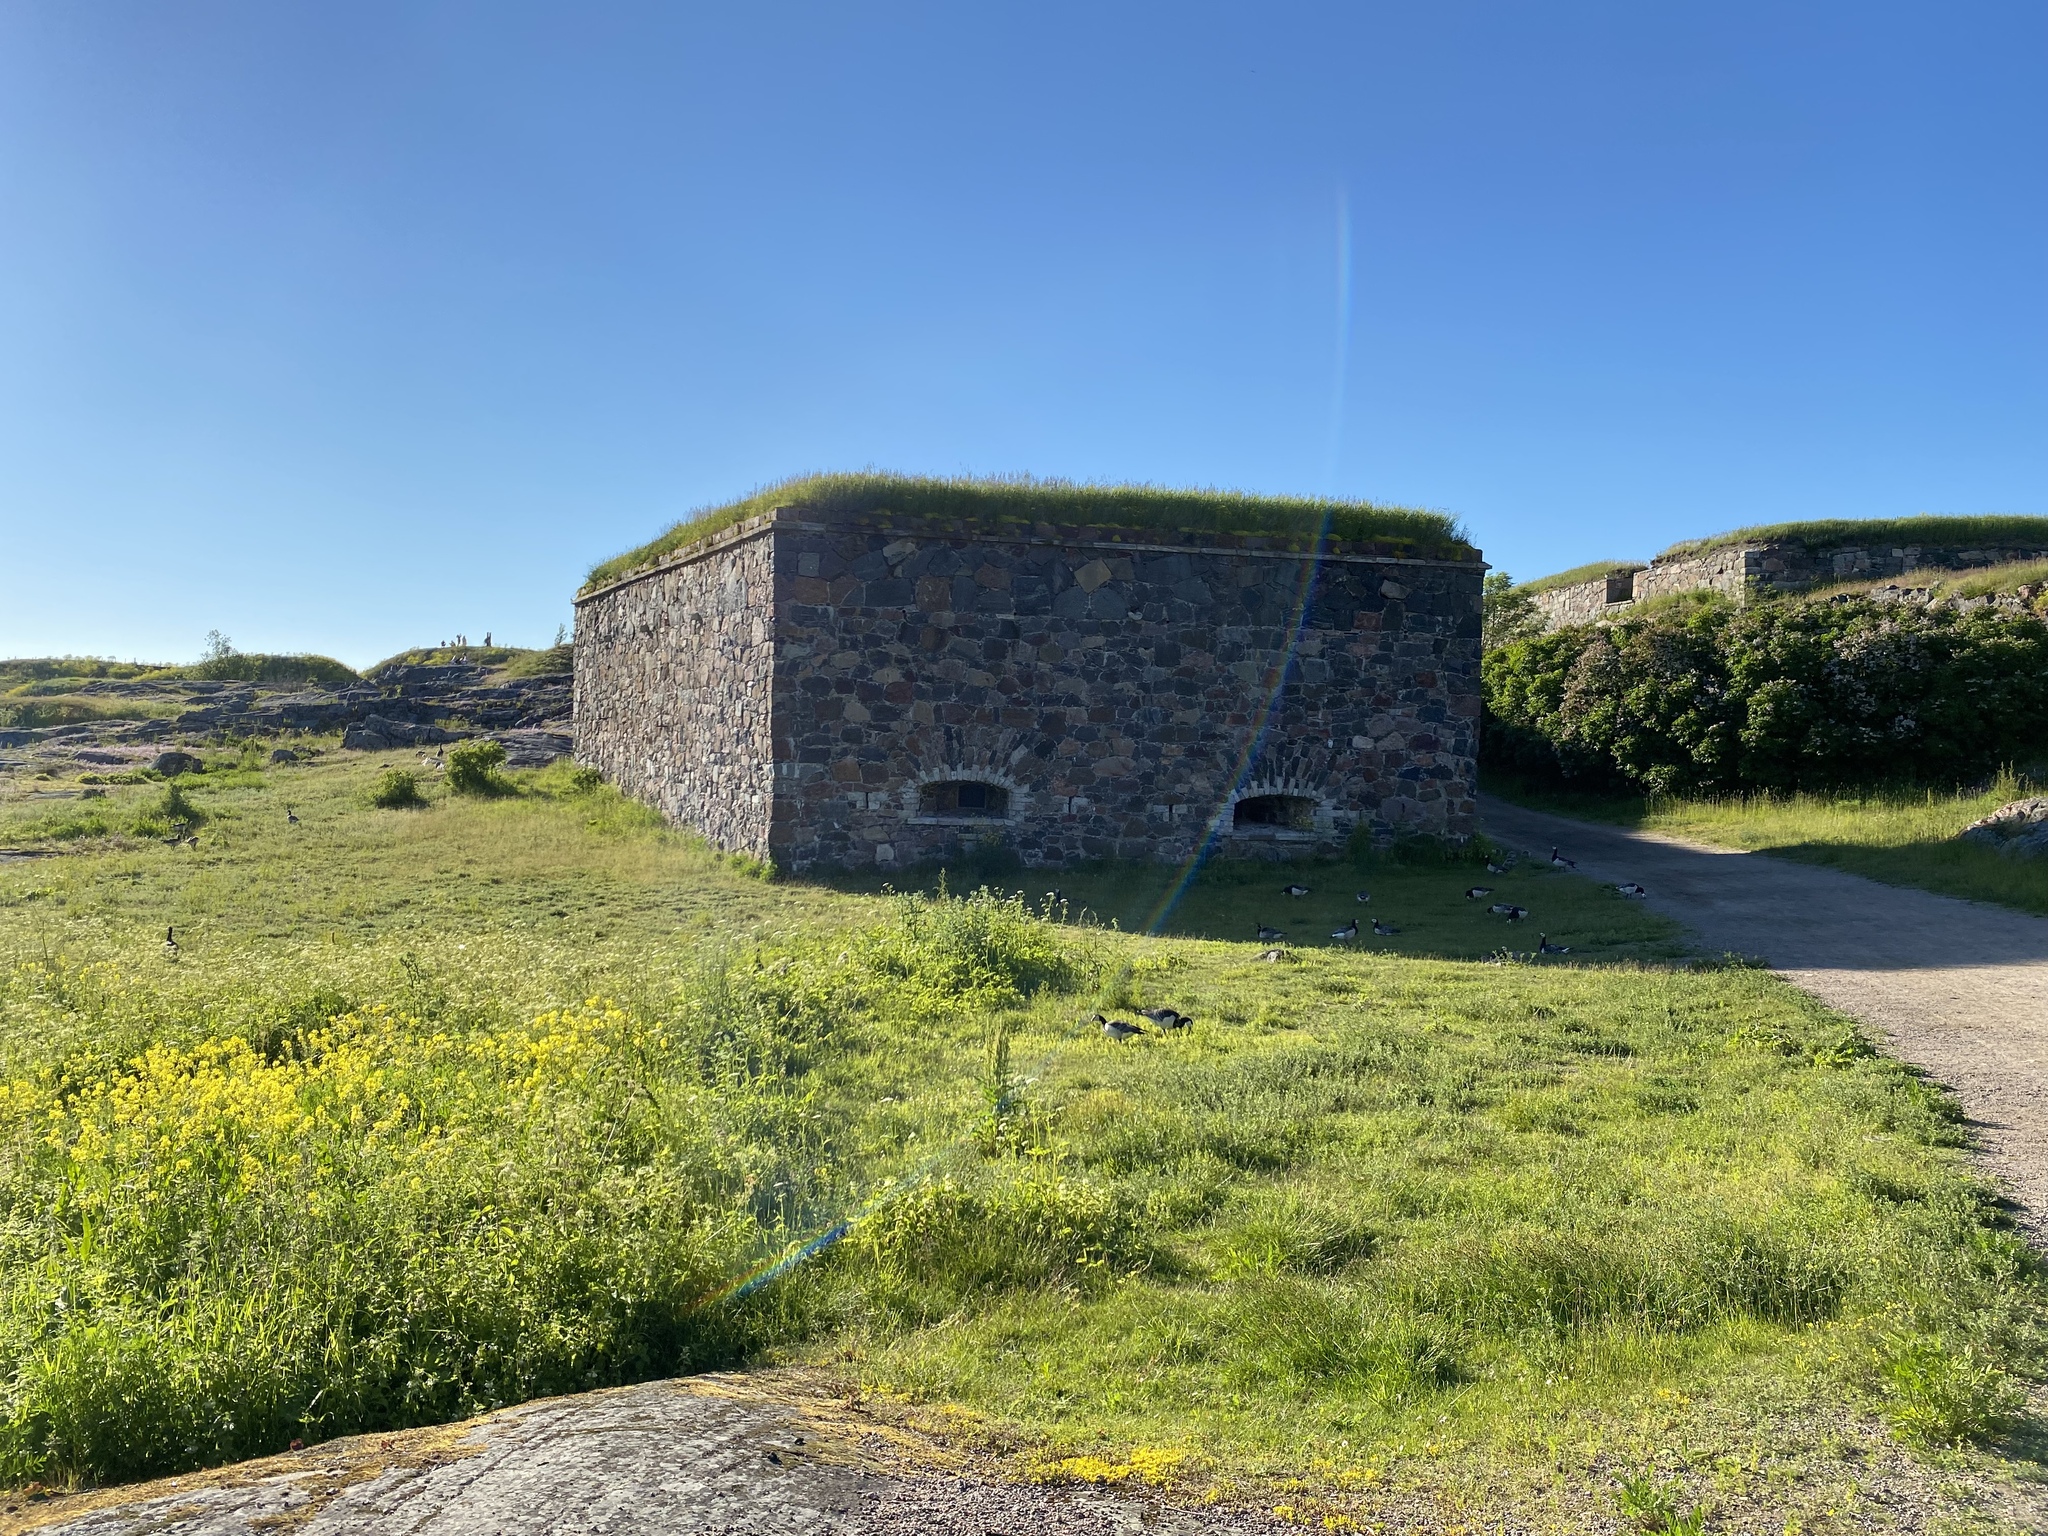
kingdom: Animalia
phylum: Chordata
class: Aves
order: Anseriformes
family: Anatidae
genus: Branta
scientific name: Branta leucopsis
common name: Barnacle goose
